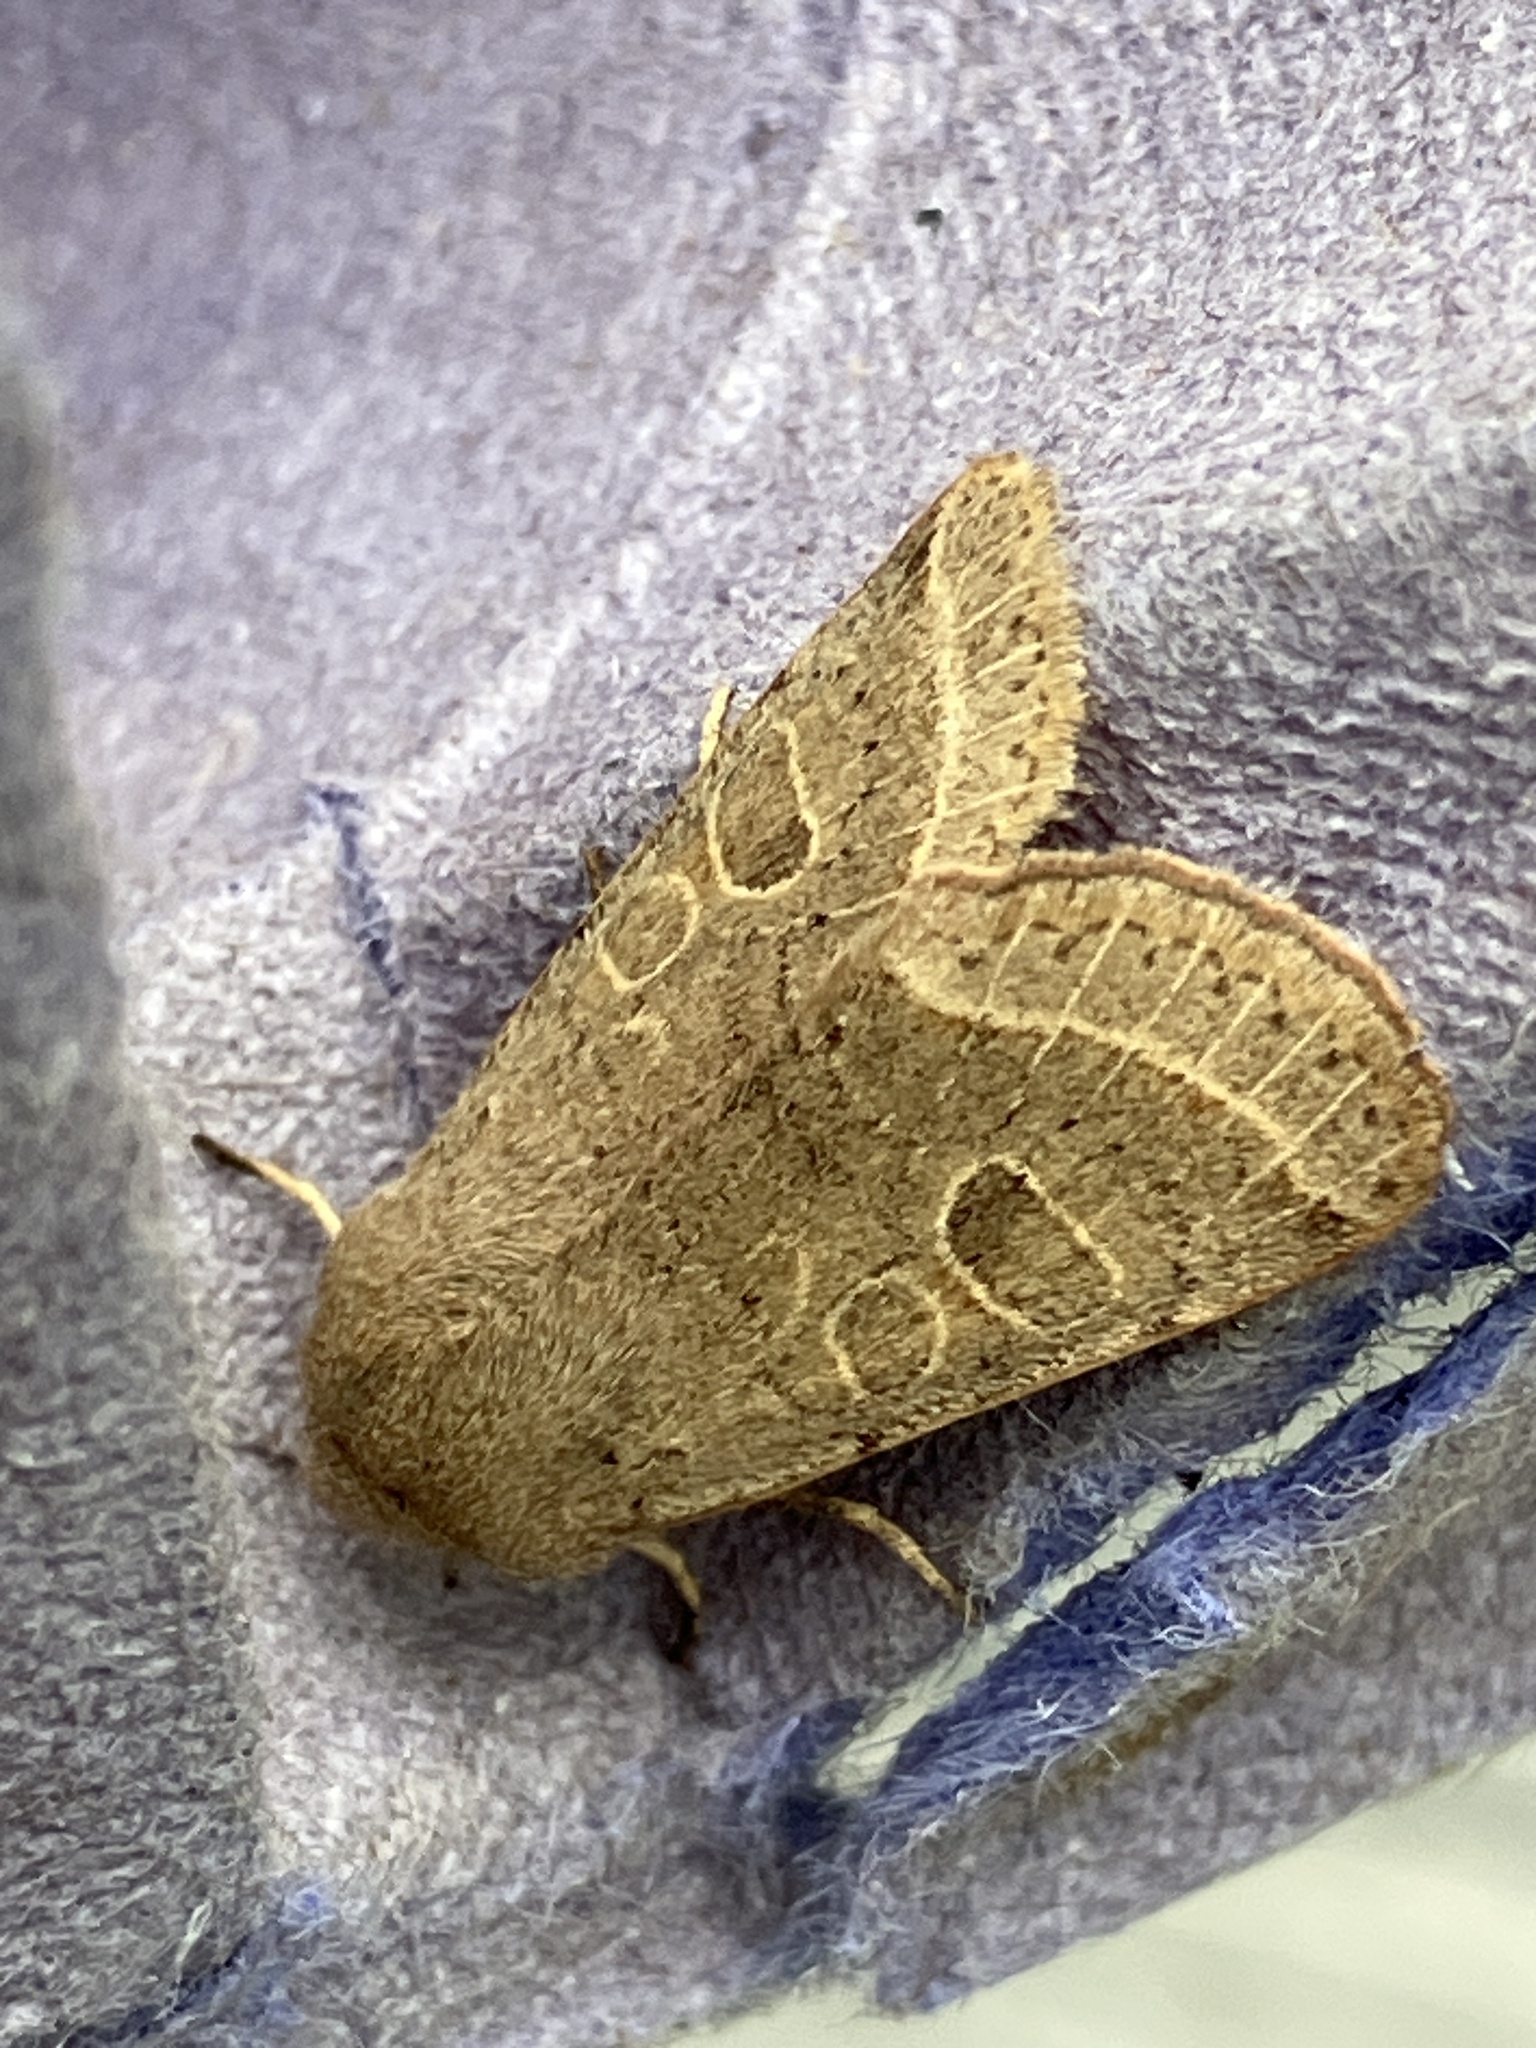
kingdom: Animalia
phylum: Arthropoda
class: Insecta
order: Lepidoptera
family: Noctuidae
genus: Orthosia
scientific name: Orthosia cerasi
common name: Common quaker
